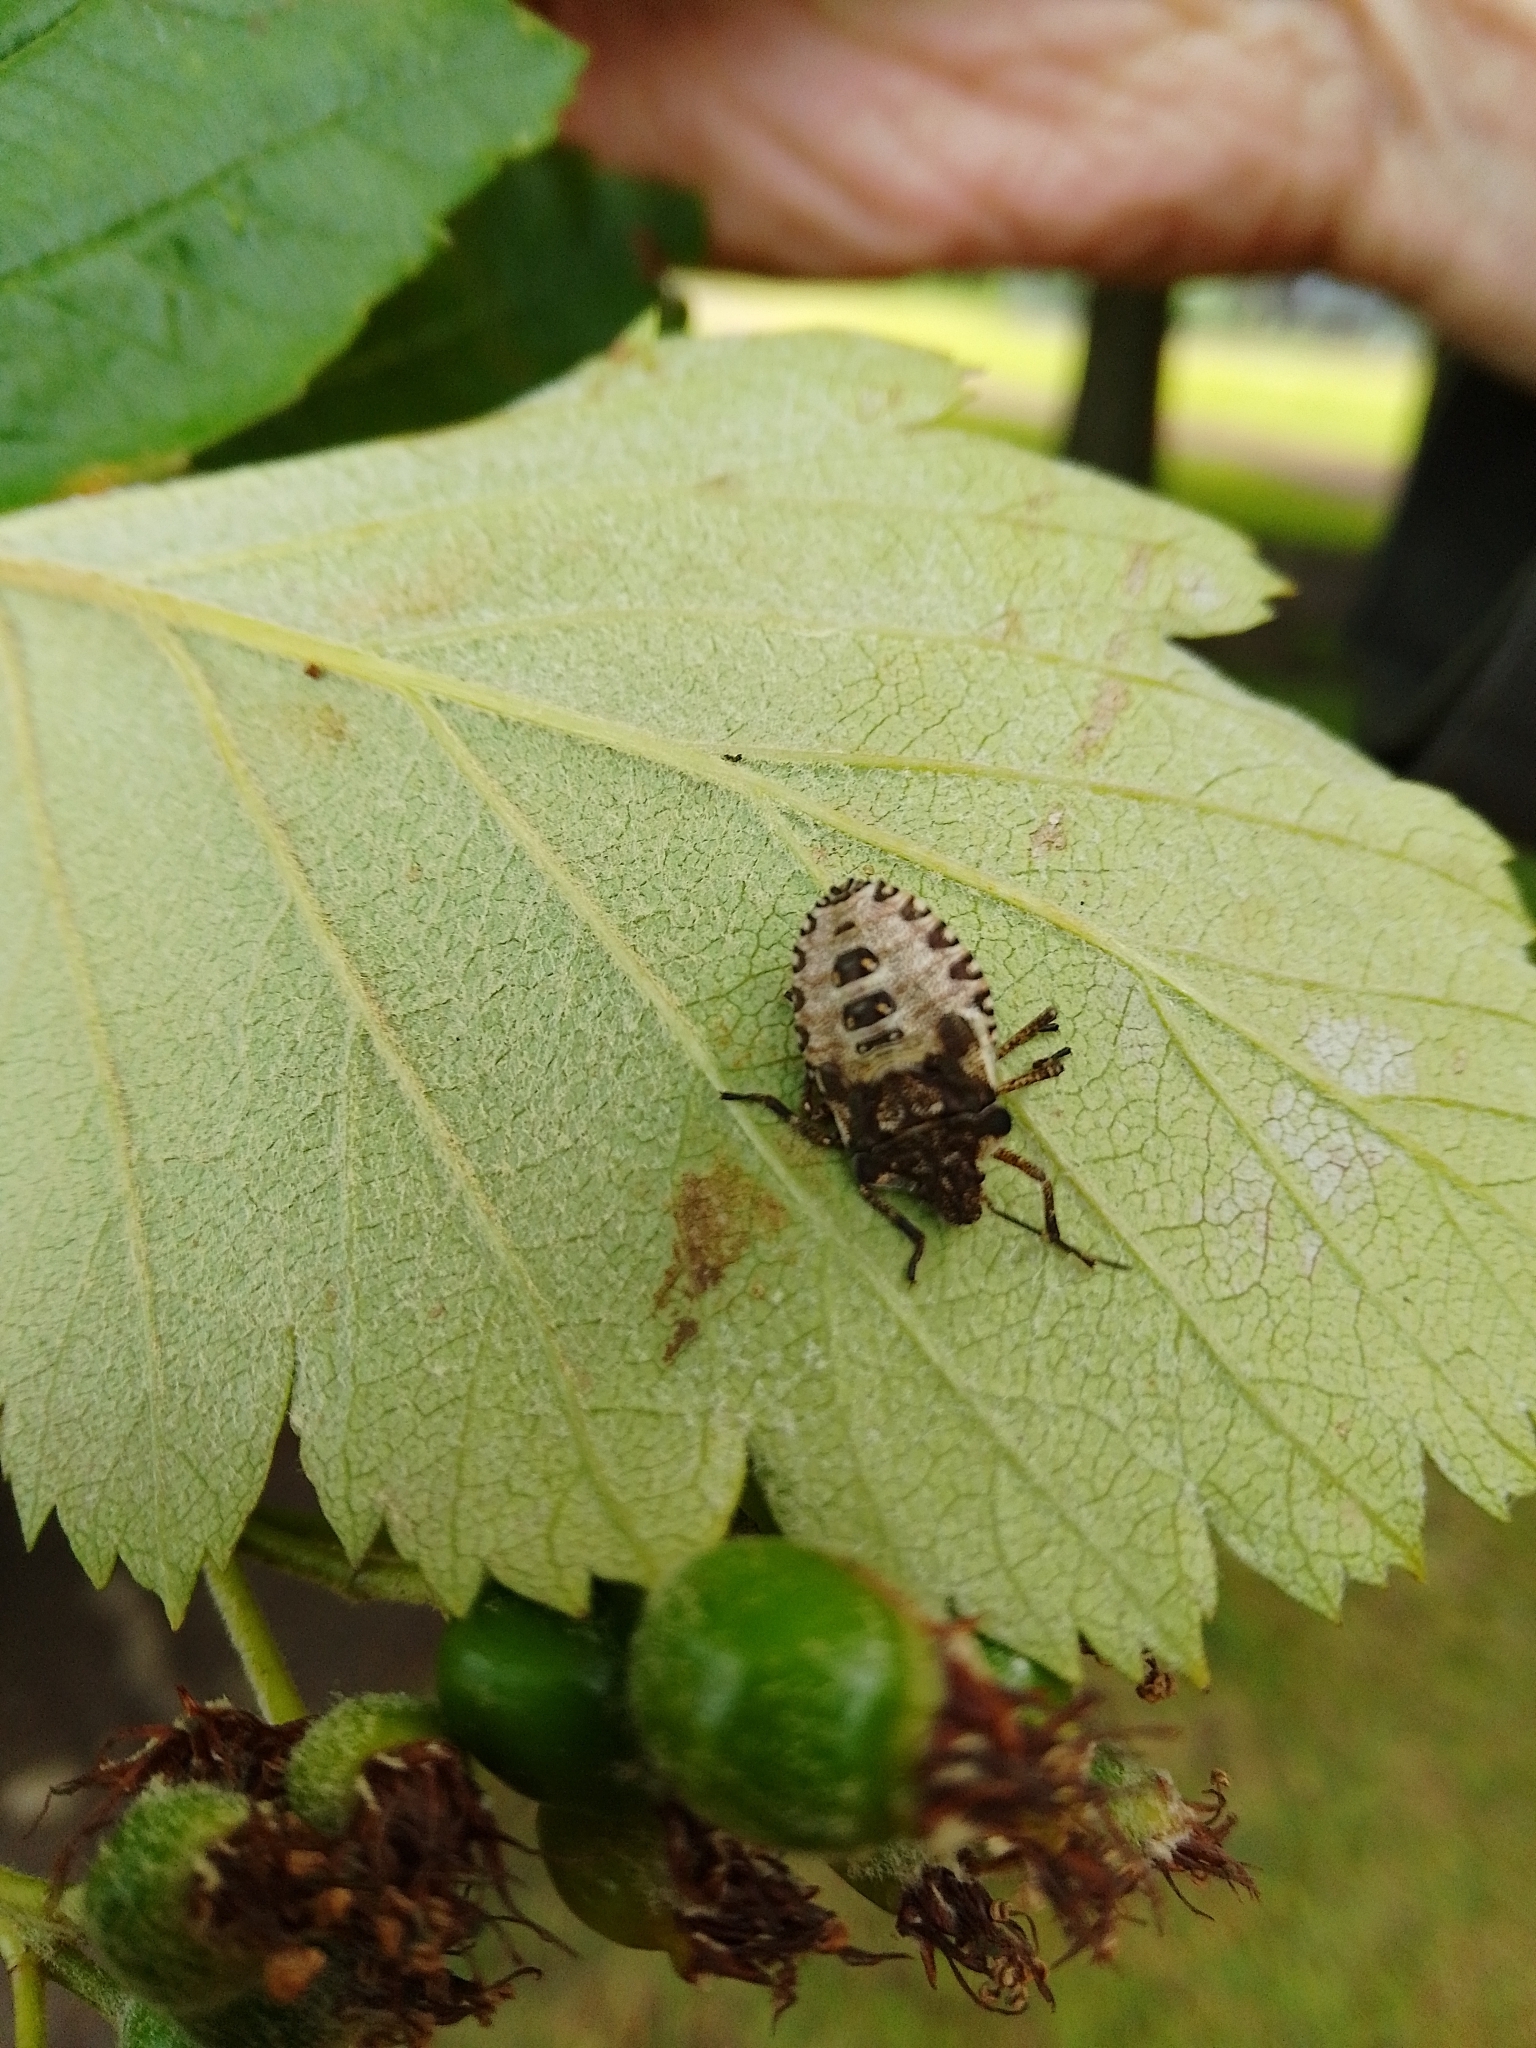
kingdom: Animalia
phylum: Arthropoda
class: Insecta
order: Hemiptera
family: Pentatomidae
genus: Pentatoma
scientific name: Pentatoma rufipes
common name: Forest bug
